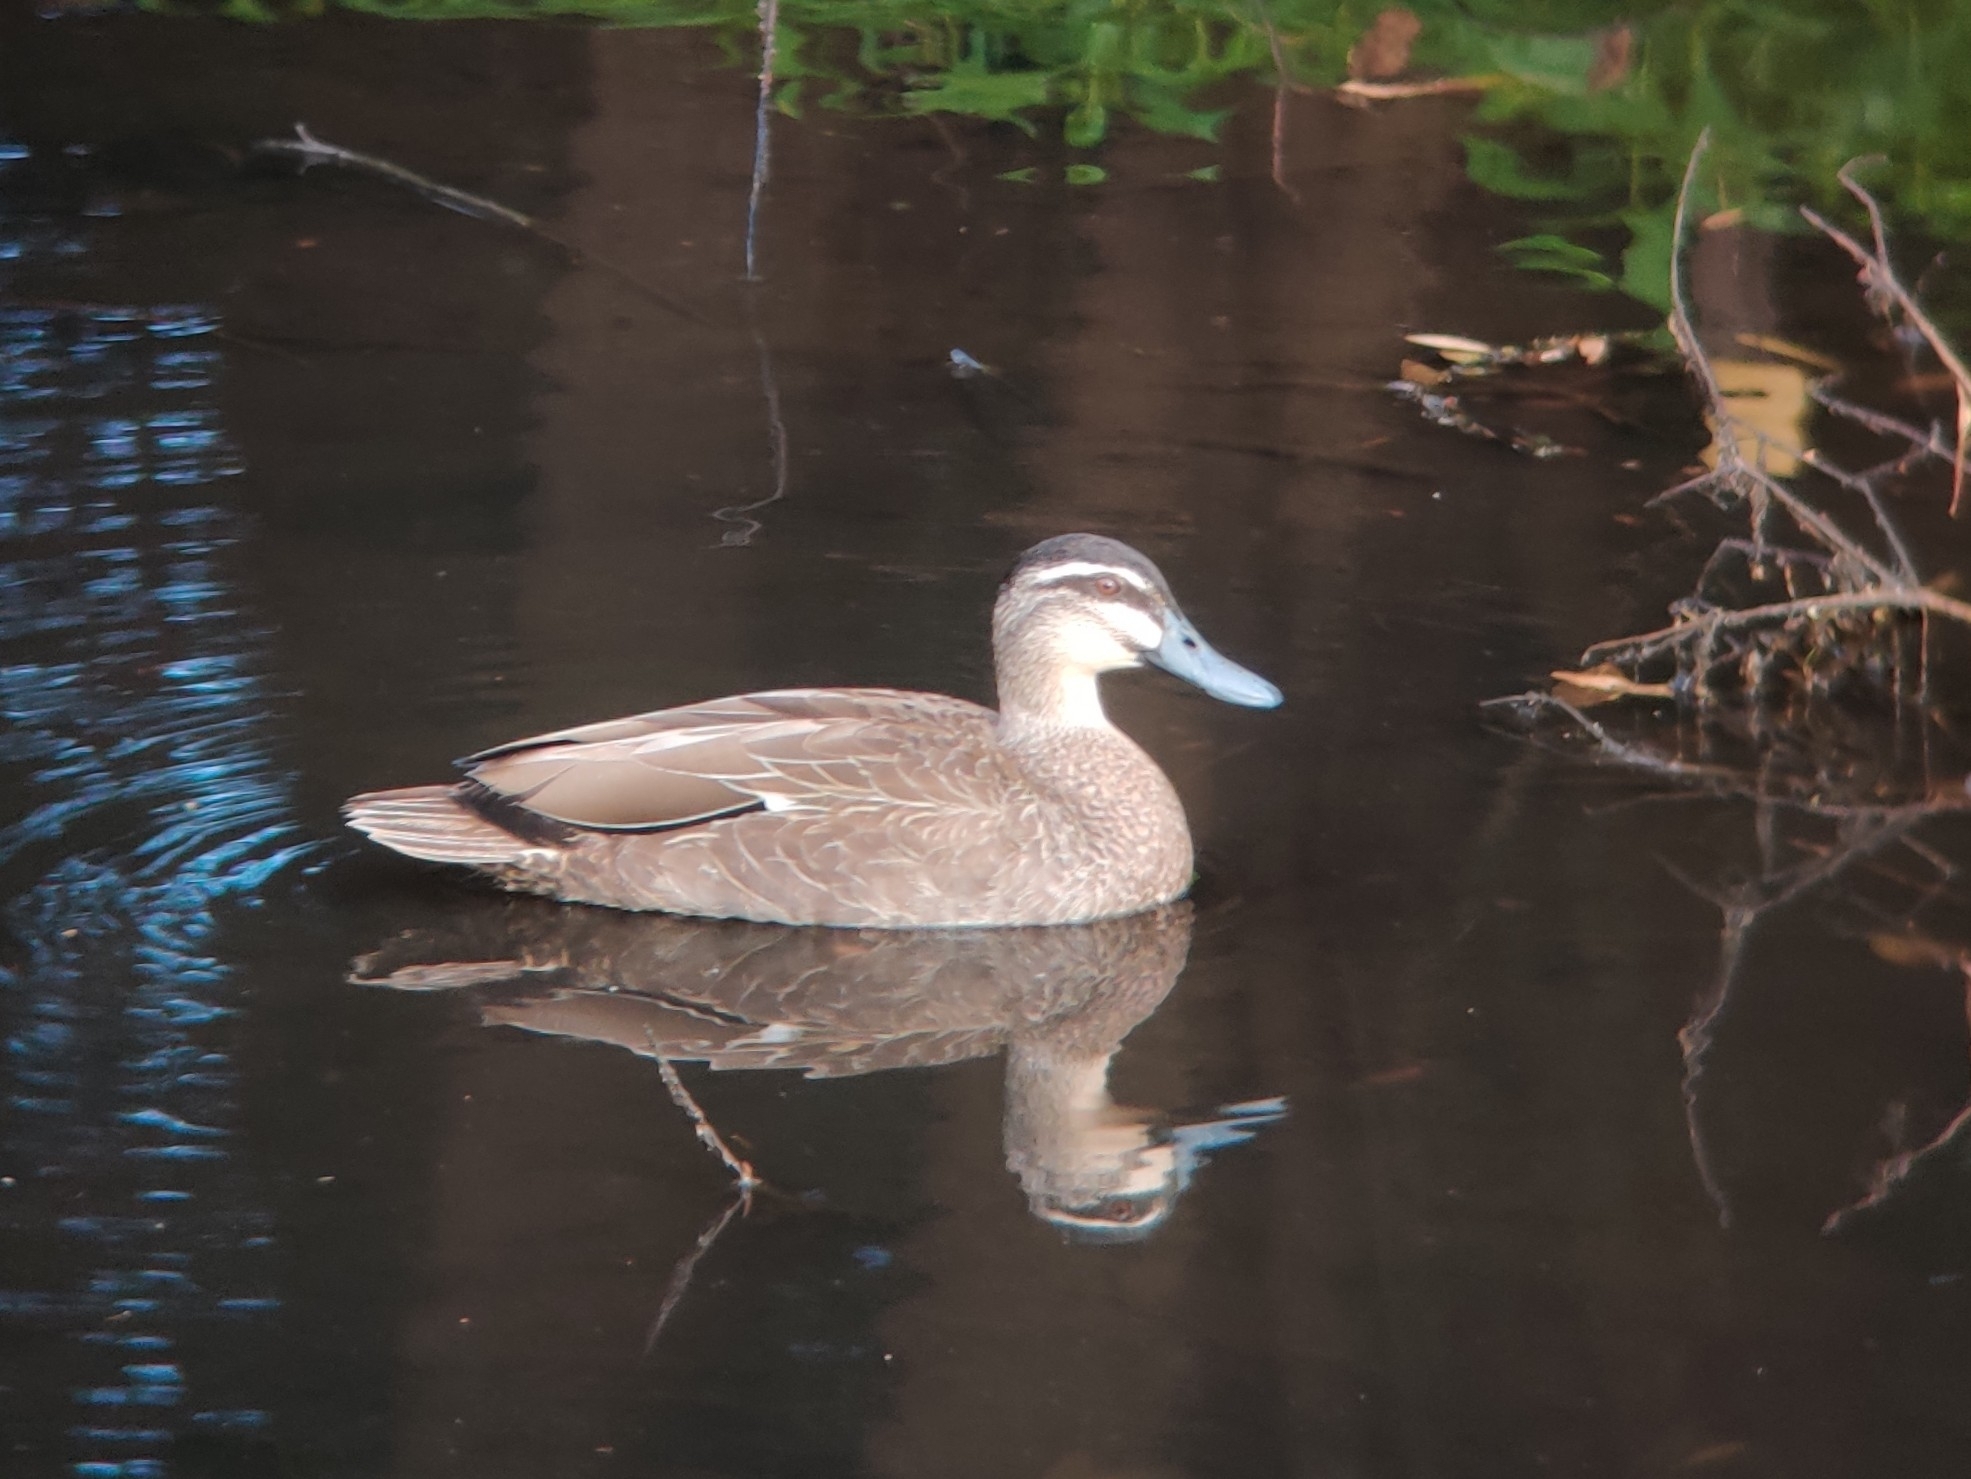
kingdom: Animalia
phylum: Chordata
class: Aves
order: Anseriformes
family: Anatidae
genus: Anas
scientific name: Anas superciliosa
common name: Pacific black duck
